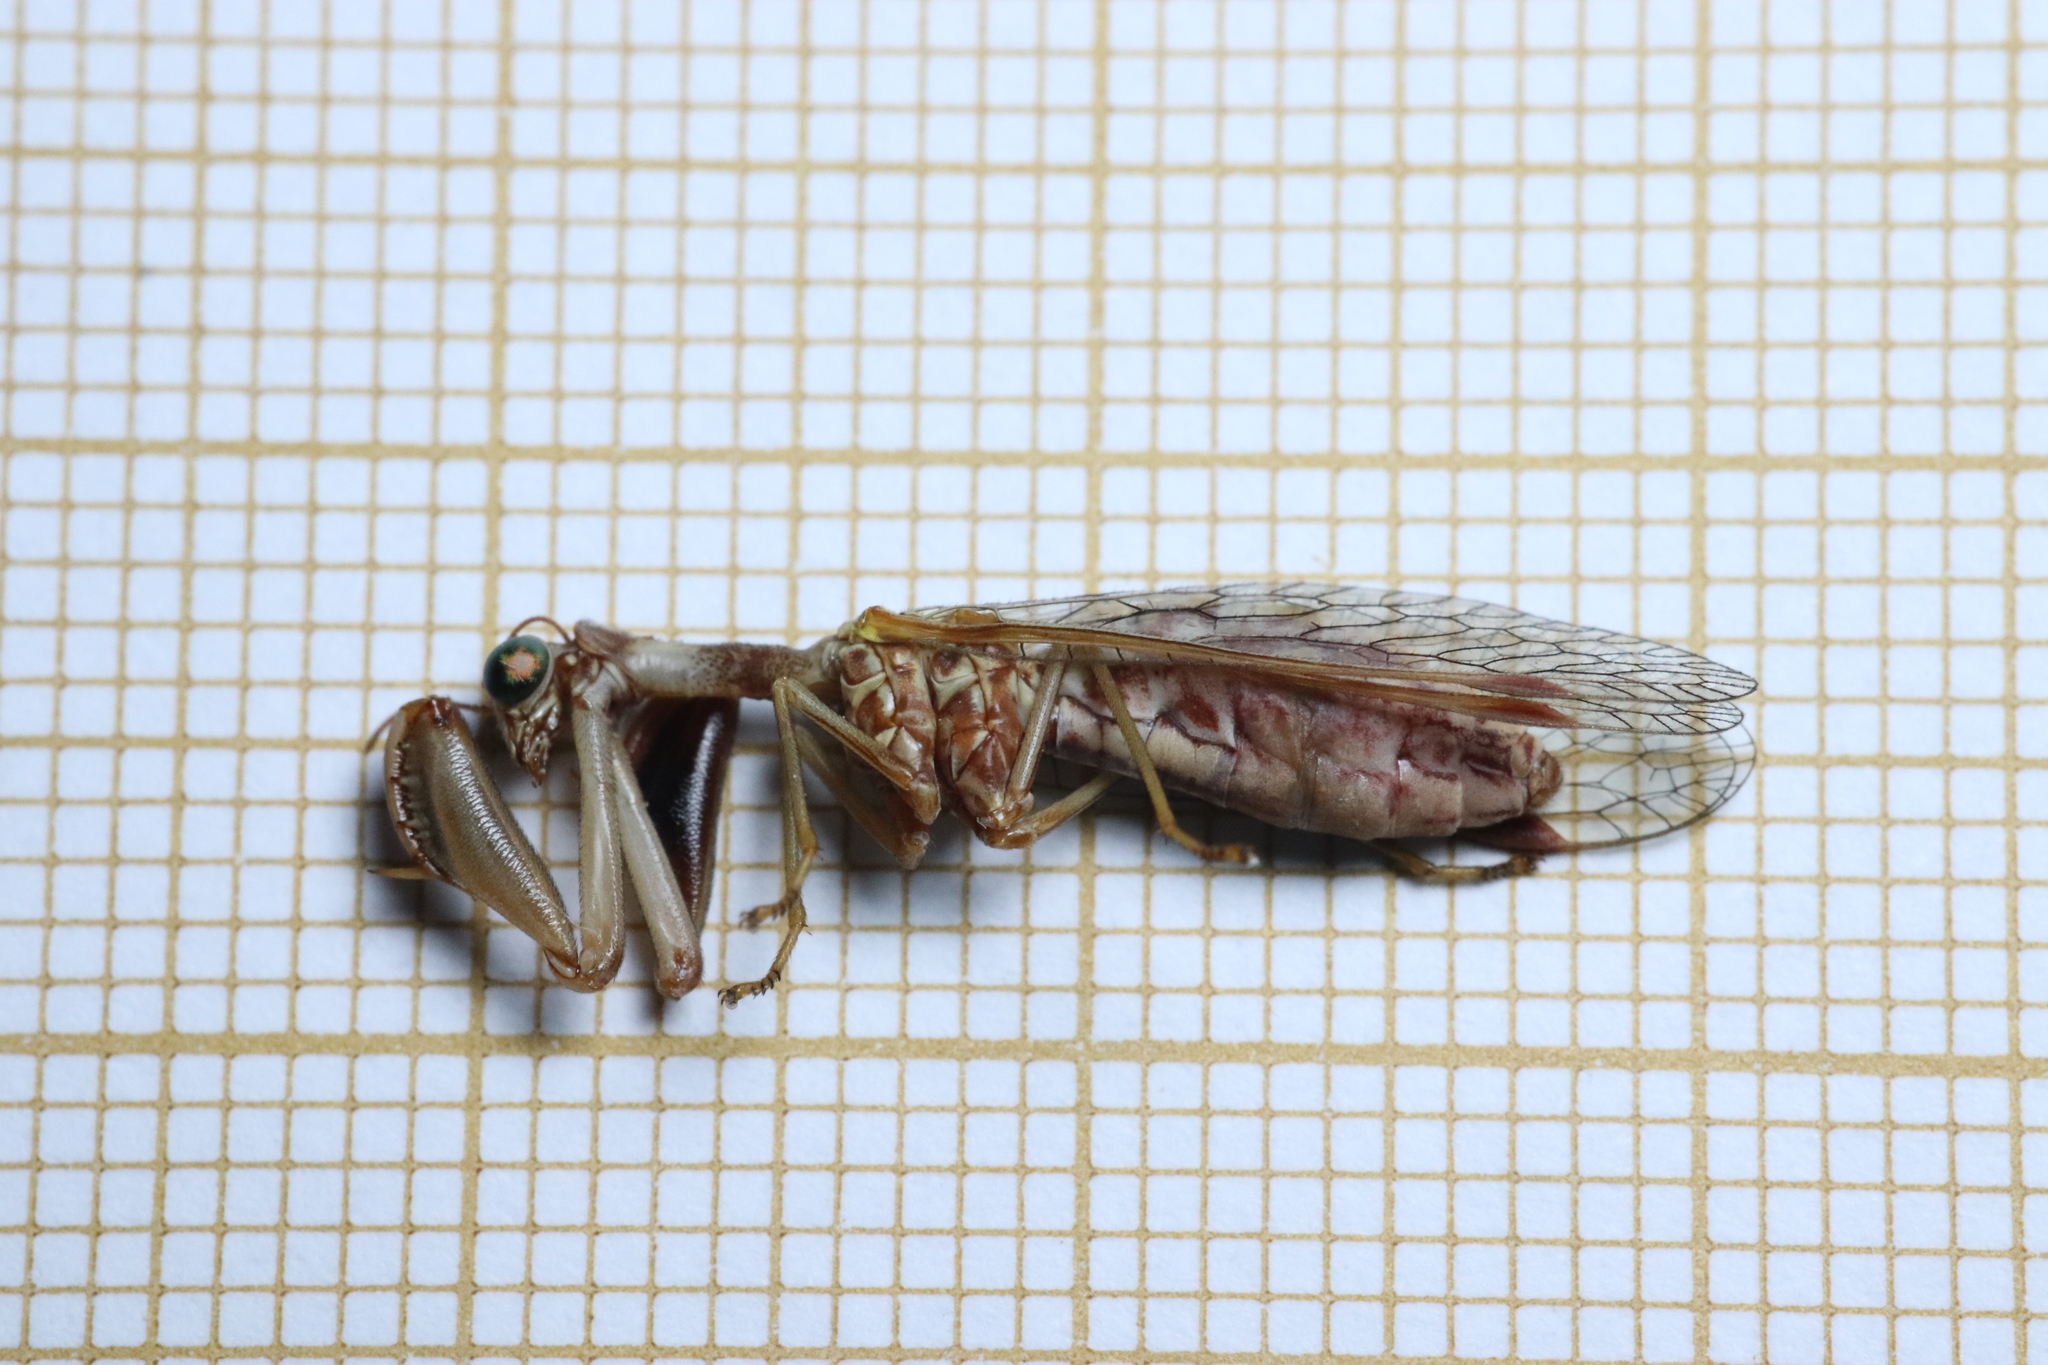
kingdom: Animalia
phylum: Arthropoda
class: Insecta
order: Neuroptera
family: Mantispidae
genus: Mantispa
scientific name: Mantispa styriaca
